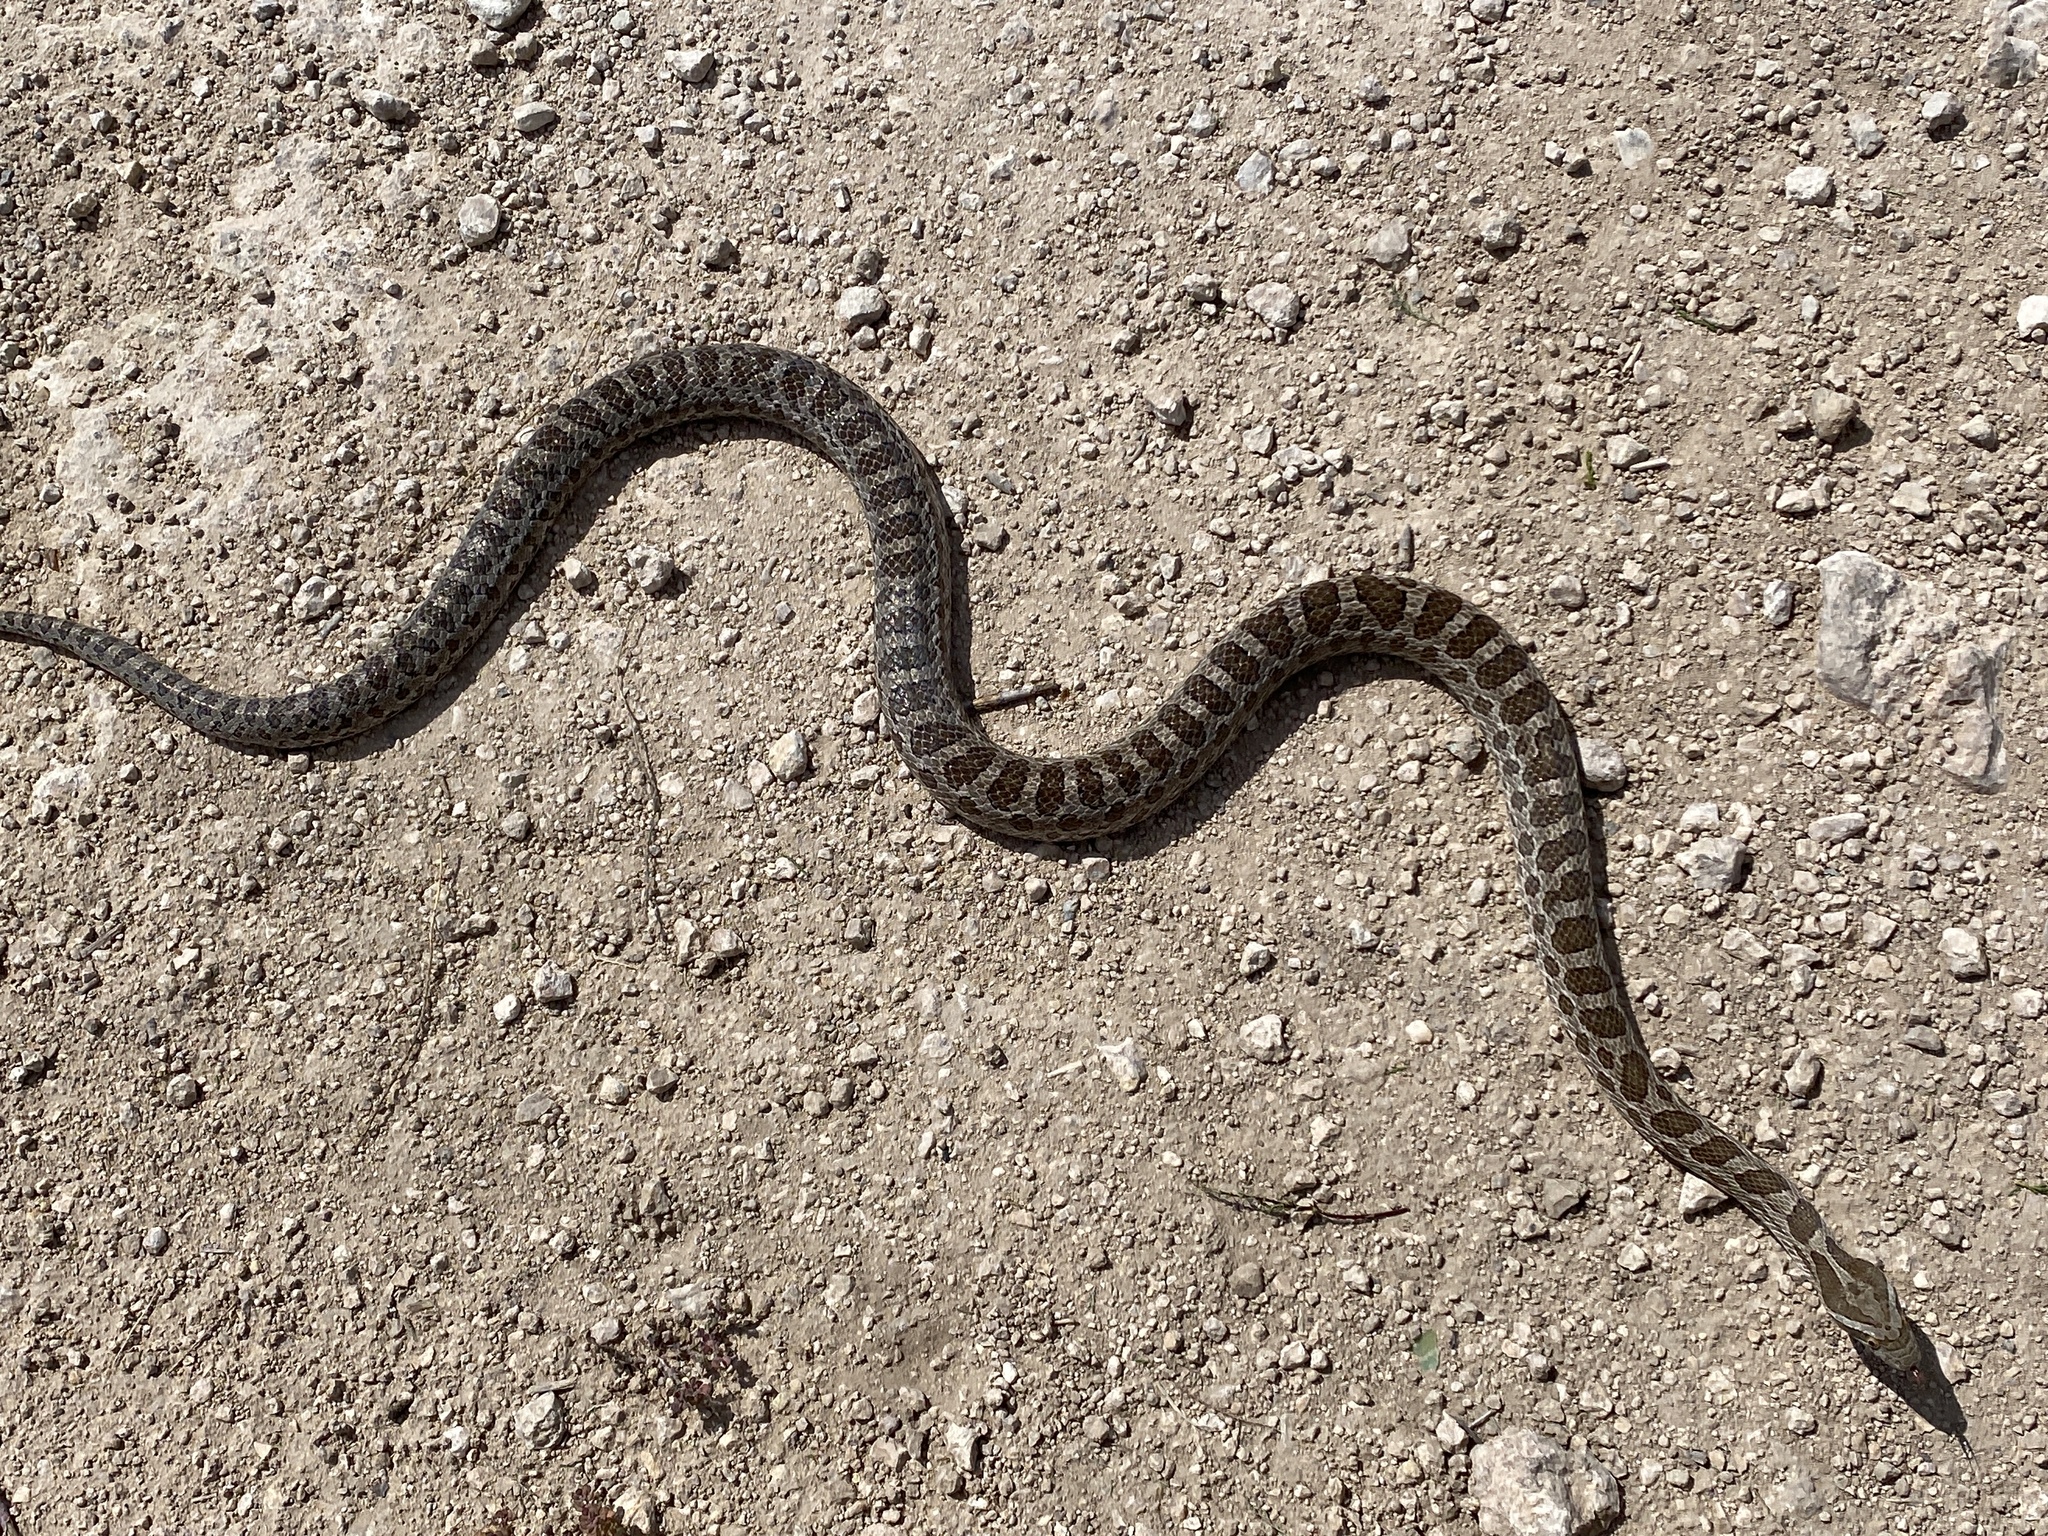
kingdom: Animalia
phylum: Chordata
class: Squamata
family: Colubridae
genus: Pantherophis
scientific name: Pantherophis emoryi
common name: Great plains rat snake
